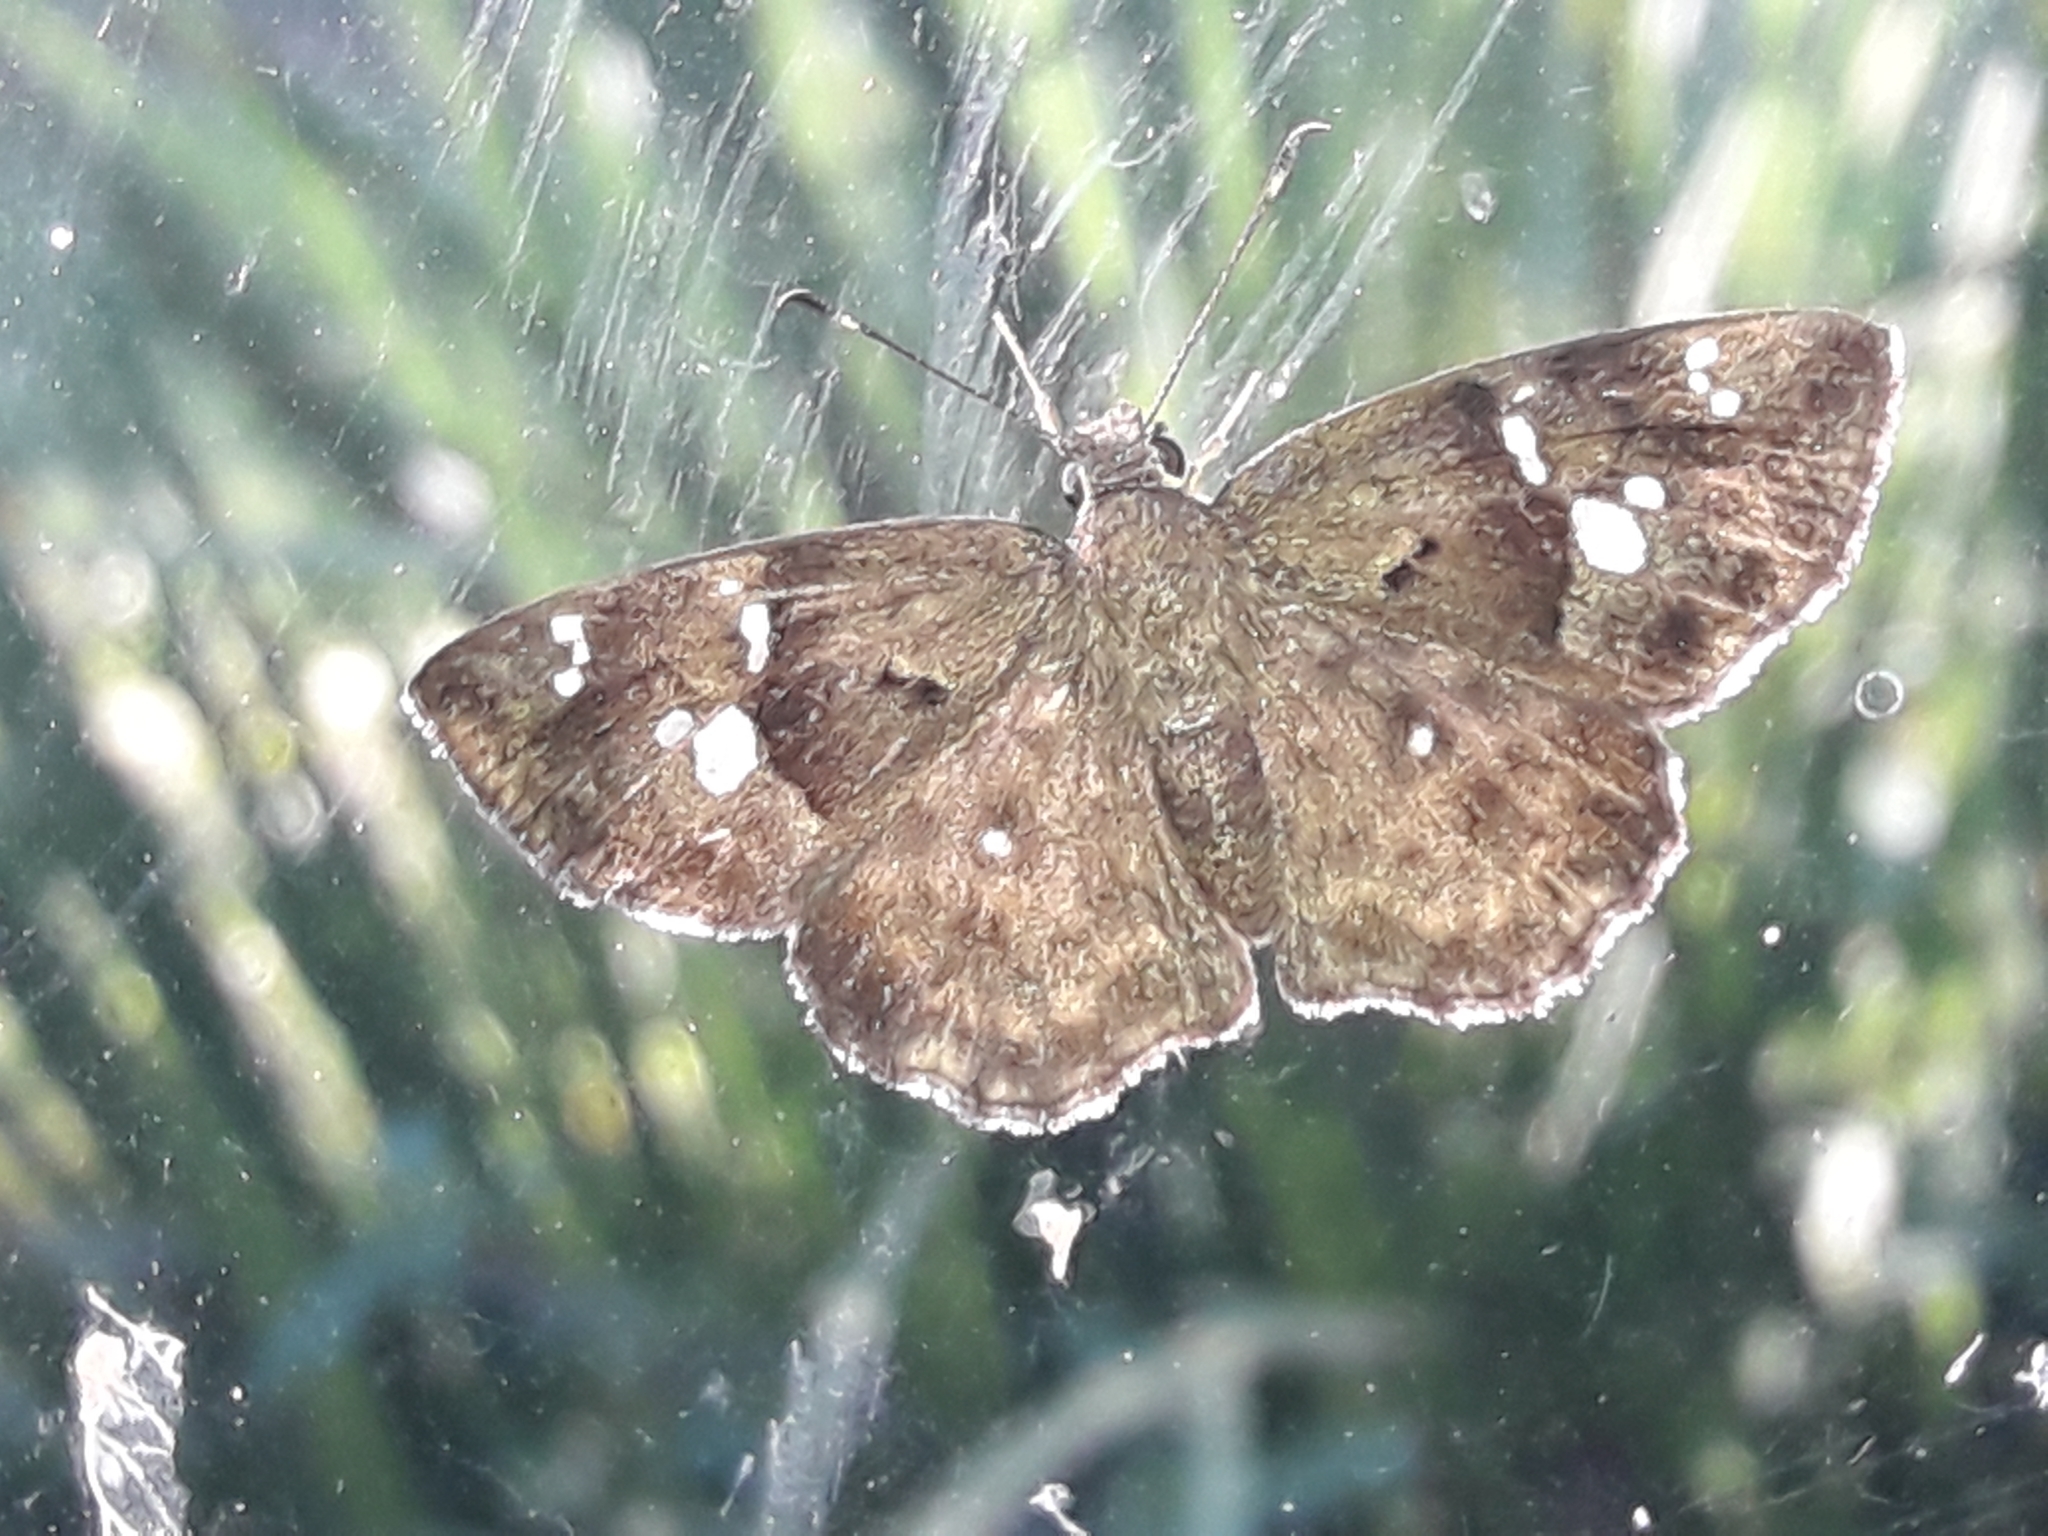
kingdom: Animalia
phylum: Arthropoda
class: Insecta
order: Lepidoptera
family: Hesperiidae
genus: Sarangesa
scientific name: Sarangesa motozi
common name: Forest elfin
